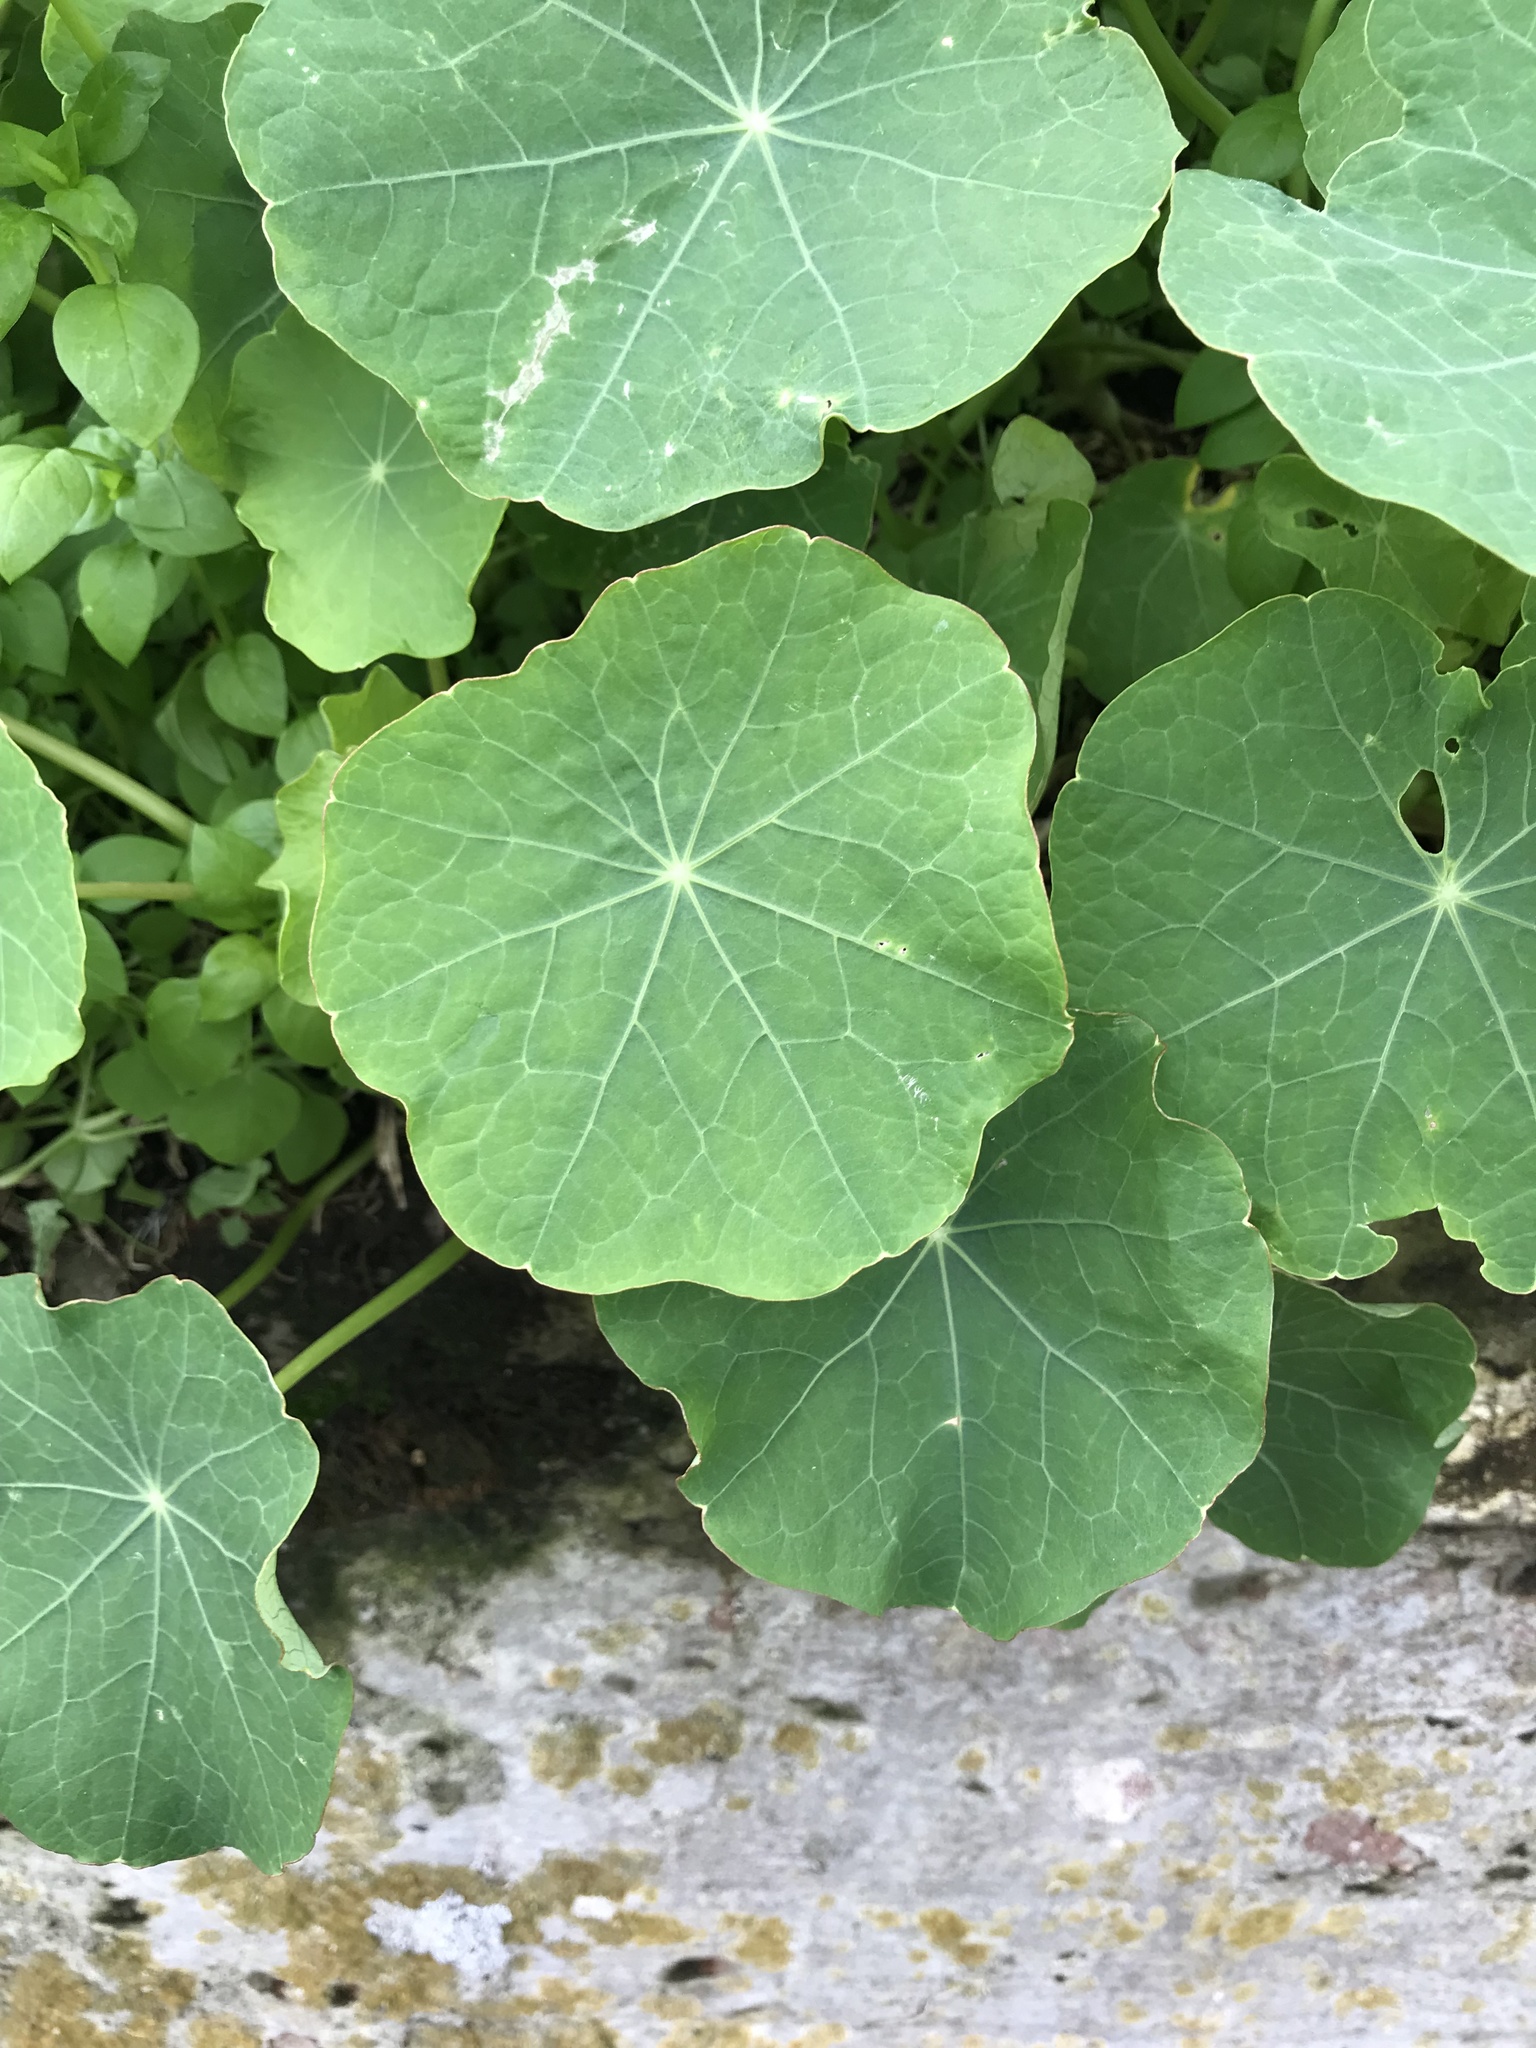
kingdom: Plantae
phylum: Tracheophyta
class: Magnoliopsida
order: Brassicales
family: Tropaeolaceae
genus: Tropaeolum
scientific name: Tropaeolum majus
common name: Nasturtium
